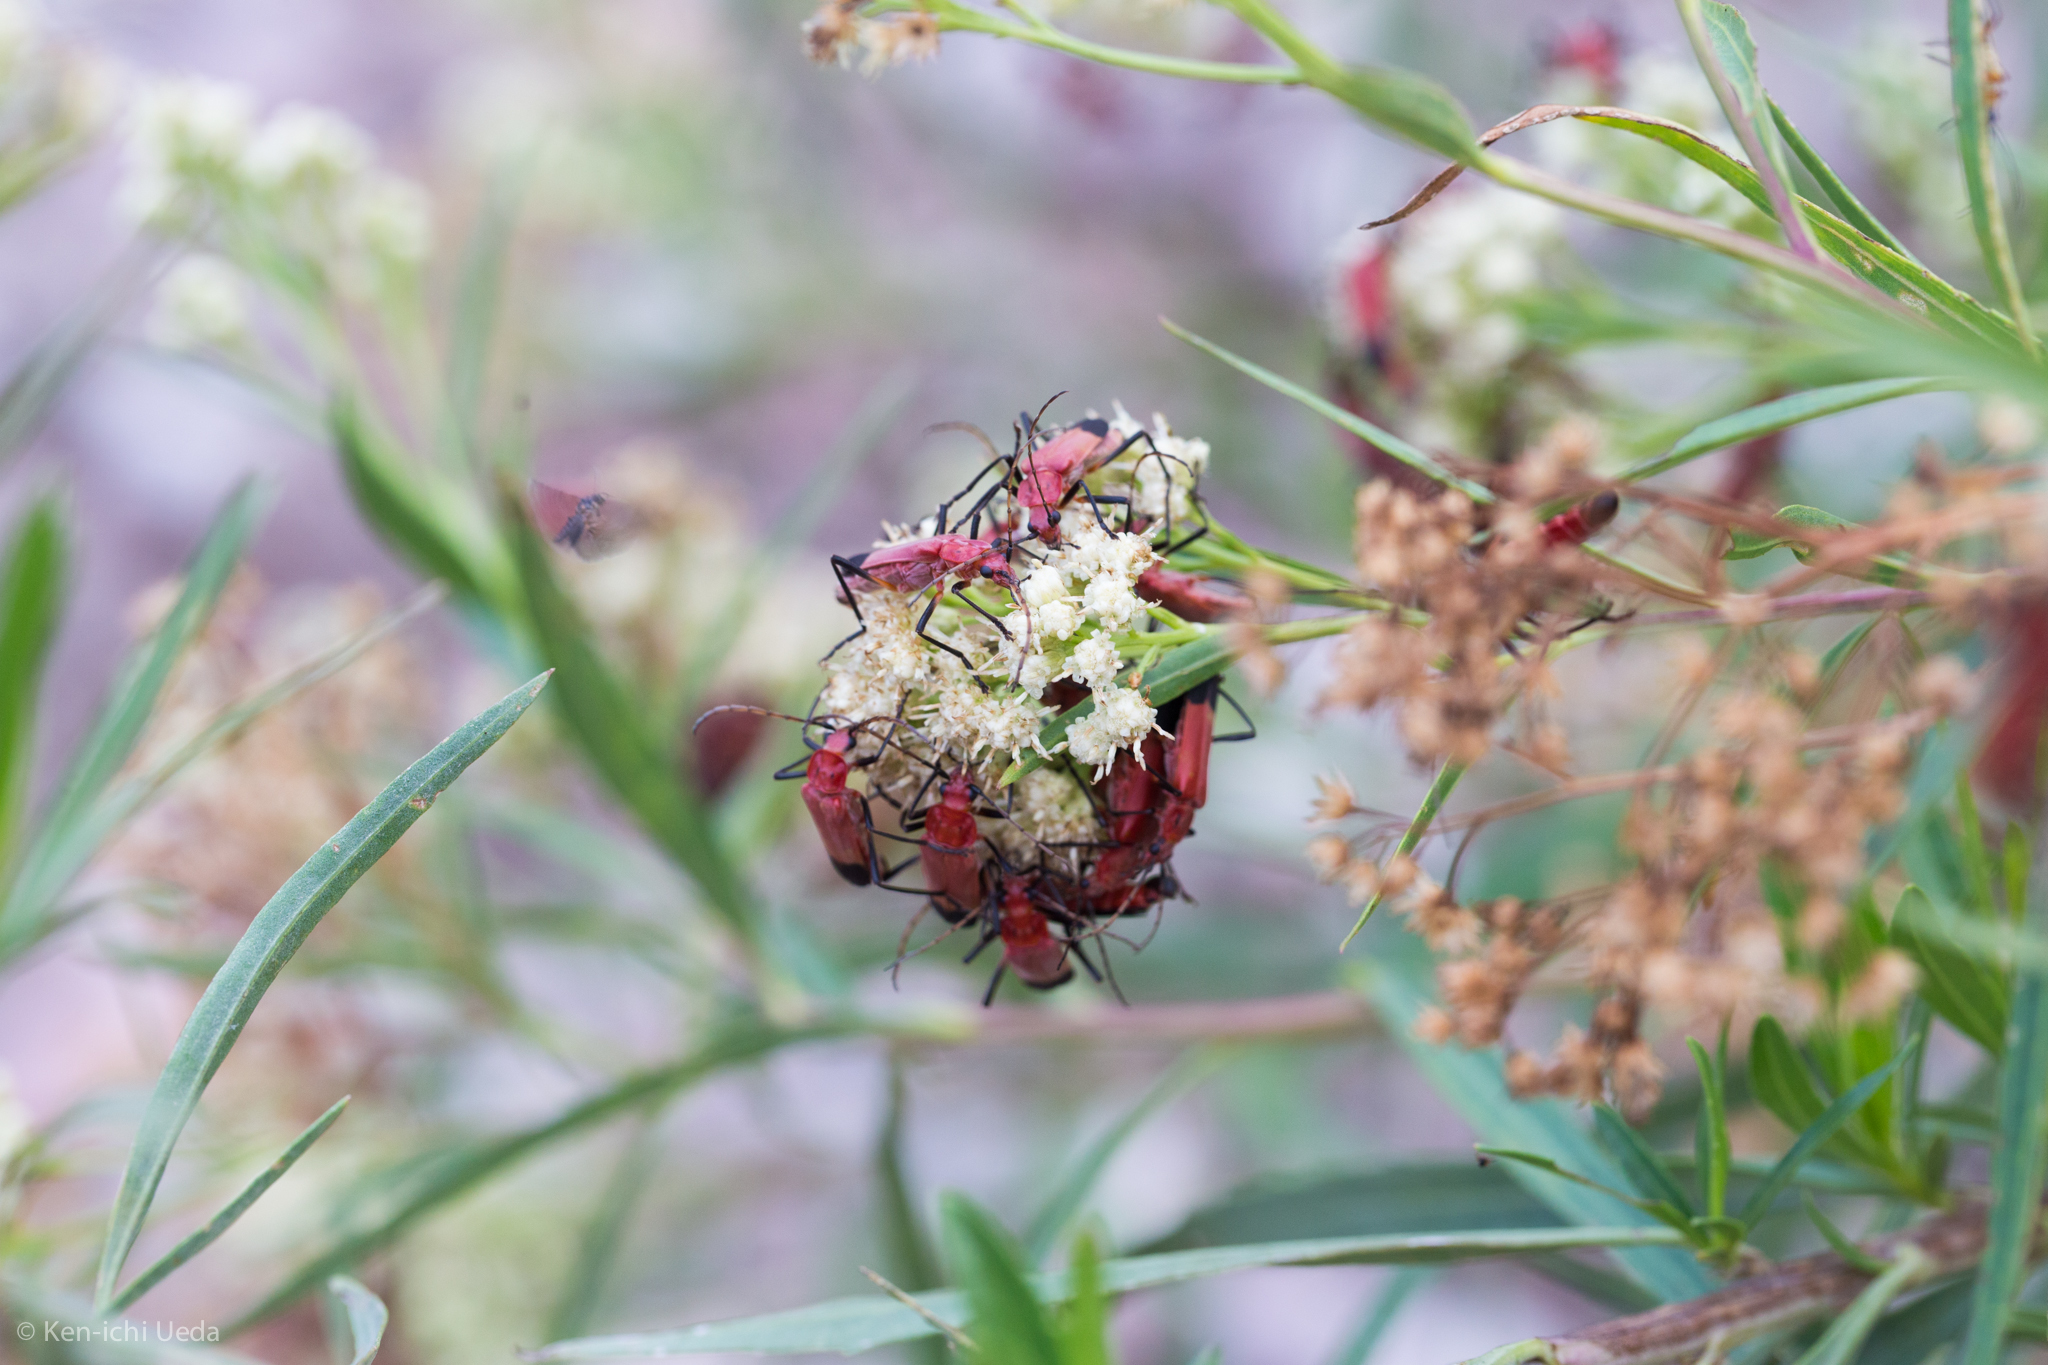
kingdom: Plantae
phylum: Tracheophyta
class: Magnoliopsida
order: Asterales
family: Asteraceae
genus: Baccharis
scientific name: Baccharis salicifolia
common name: Sticky baccharis
